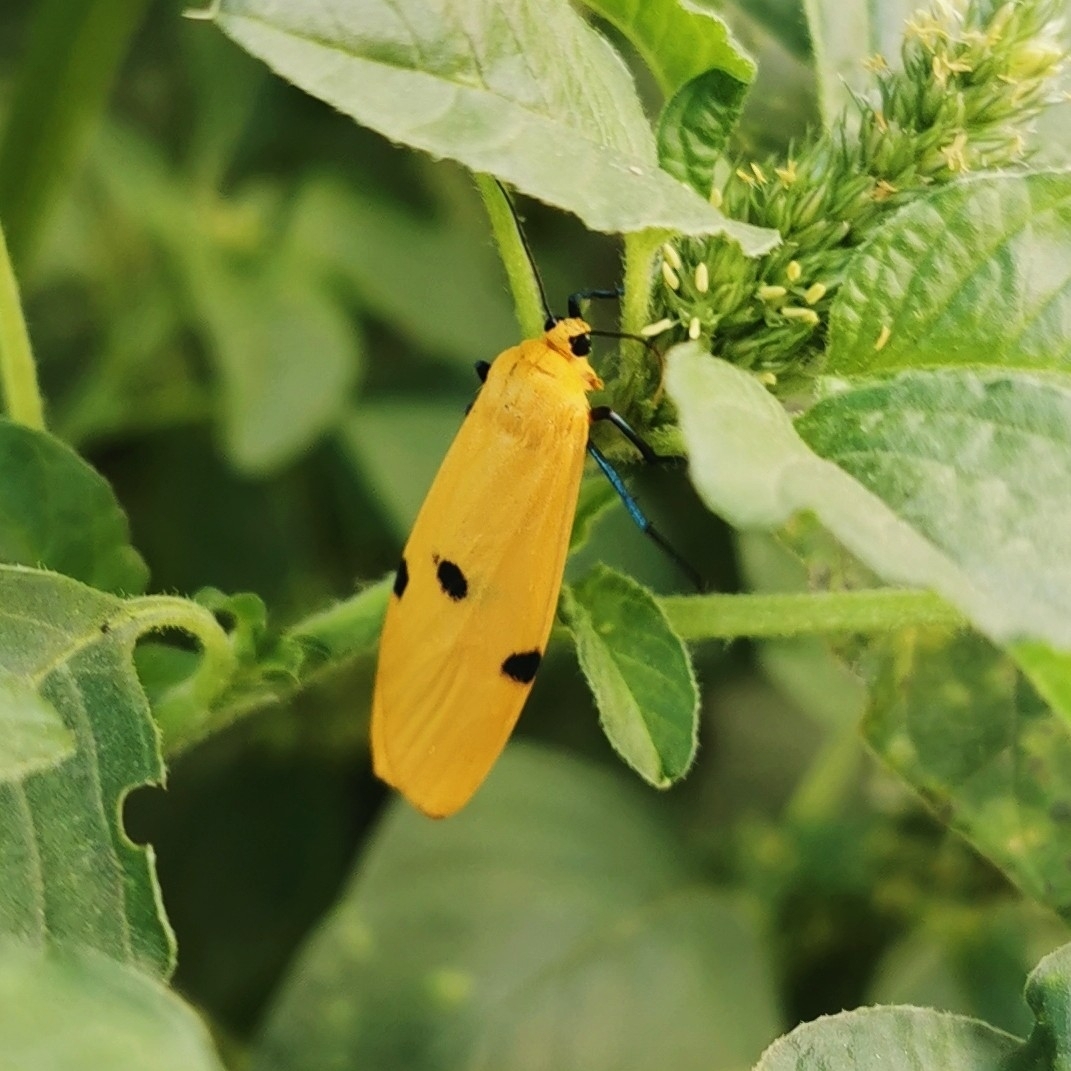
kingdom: Animalia
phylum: Arthropoda
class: Insecta
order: Lepidoptera
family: Erebidae
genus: Lithosia
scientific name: Lithosia quadra
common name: Four-spotted footman
